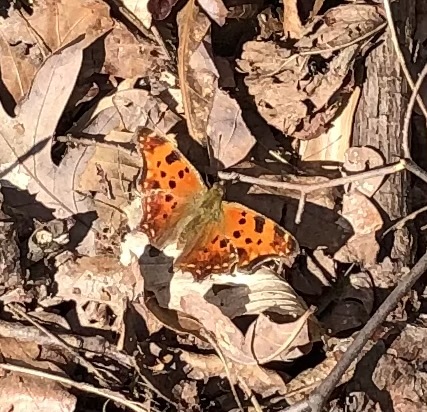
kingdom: Animalia
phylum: Arthropoda
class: Insecta
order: Lepidoptera
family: Nymphalidae
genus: Polygonia
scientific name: Polygonia comma
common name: Eastern comma
